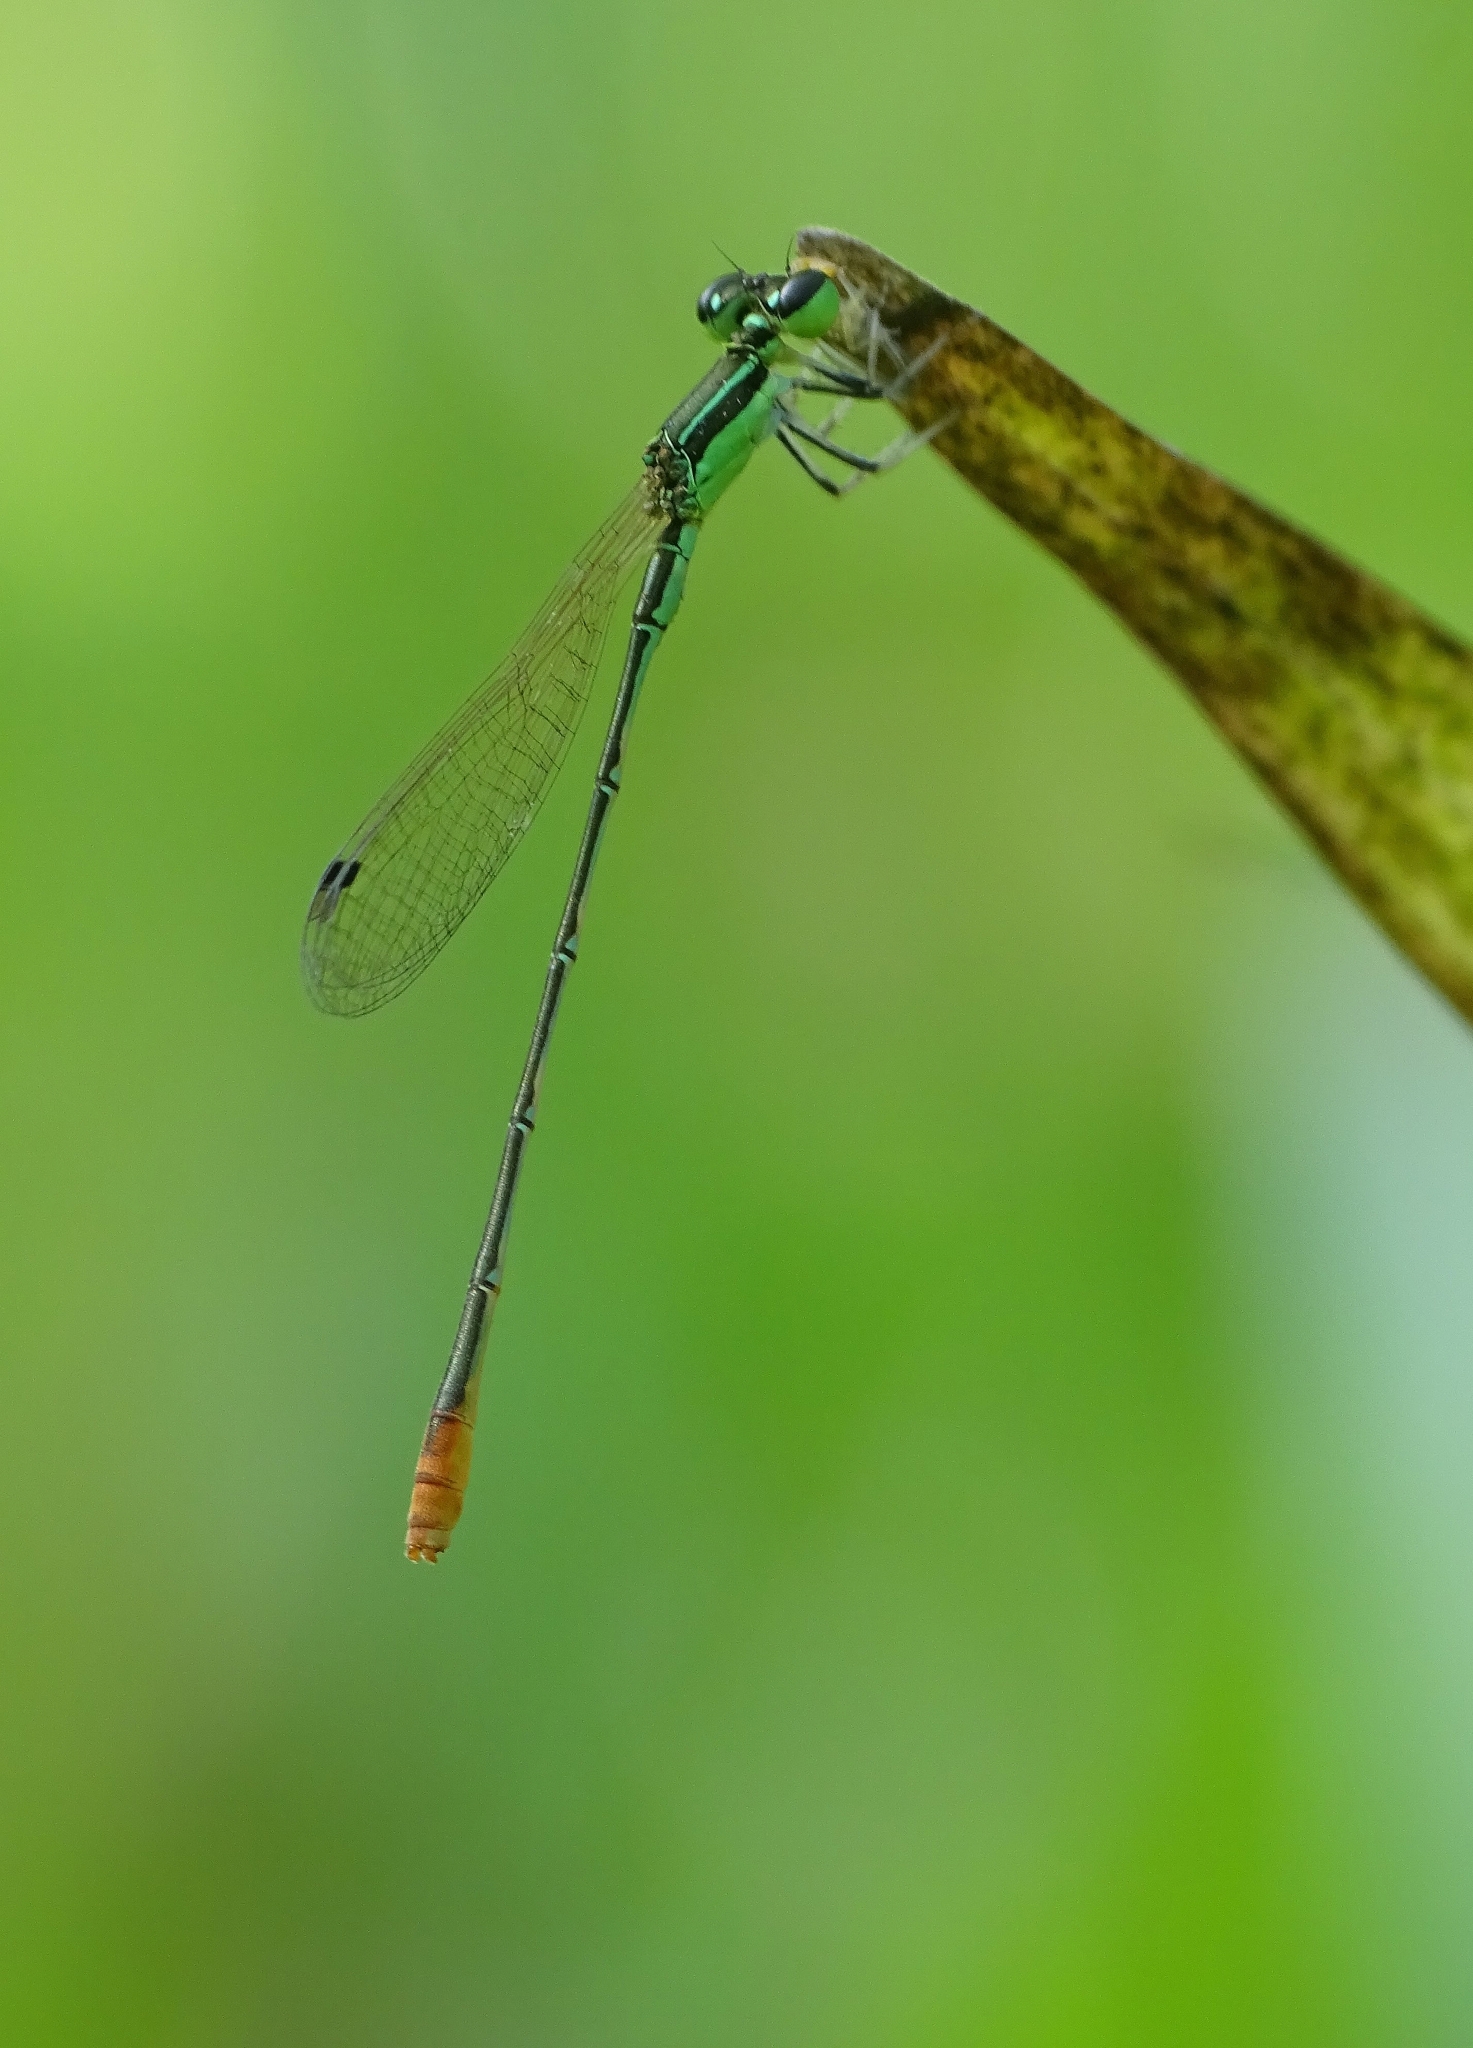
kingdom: Animalia
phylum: Arthropoda
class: Insecta
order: Odonata
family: Coenagrionidae
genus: Agriocnemis
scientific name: Agriocnemis pygmaea
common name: Pygmy wisp
